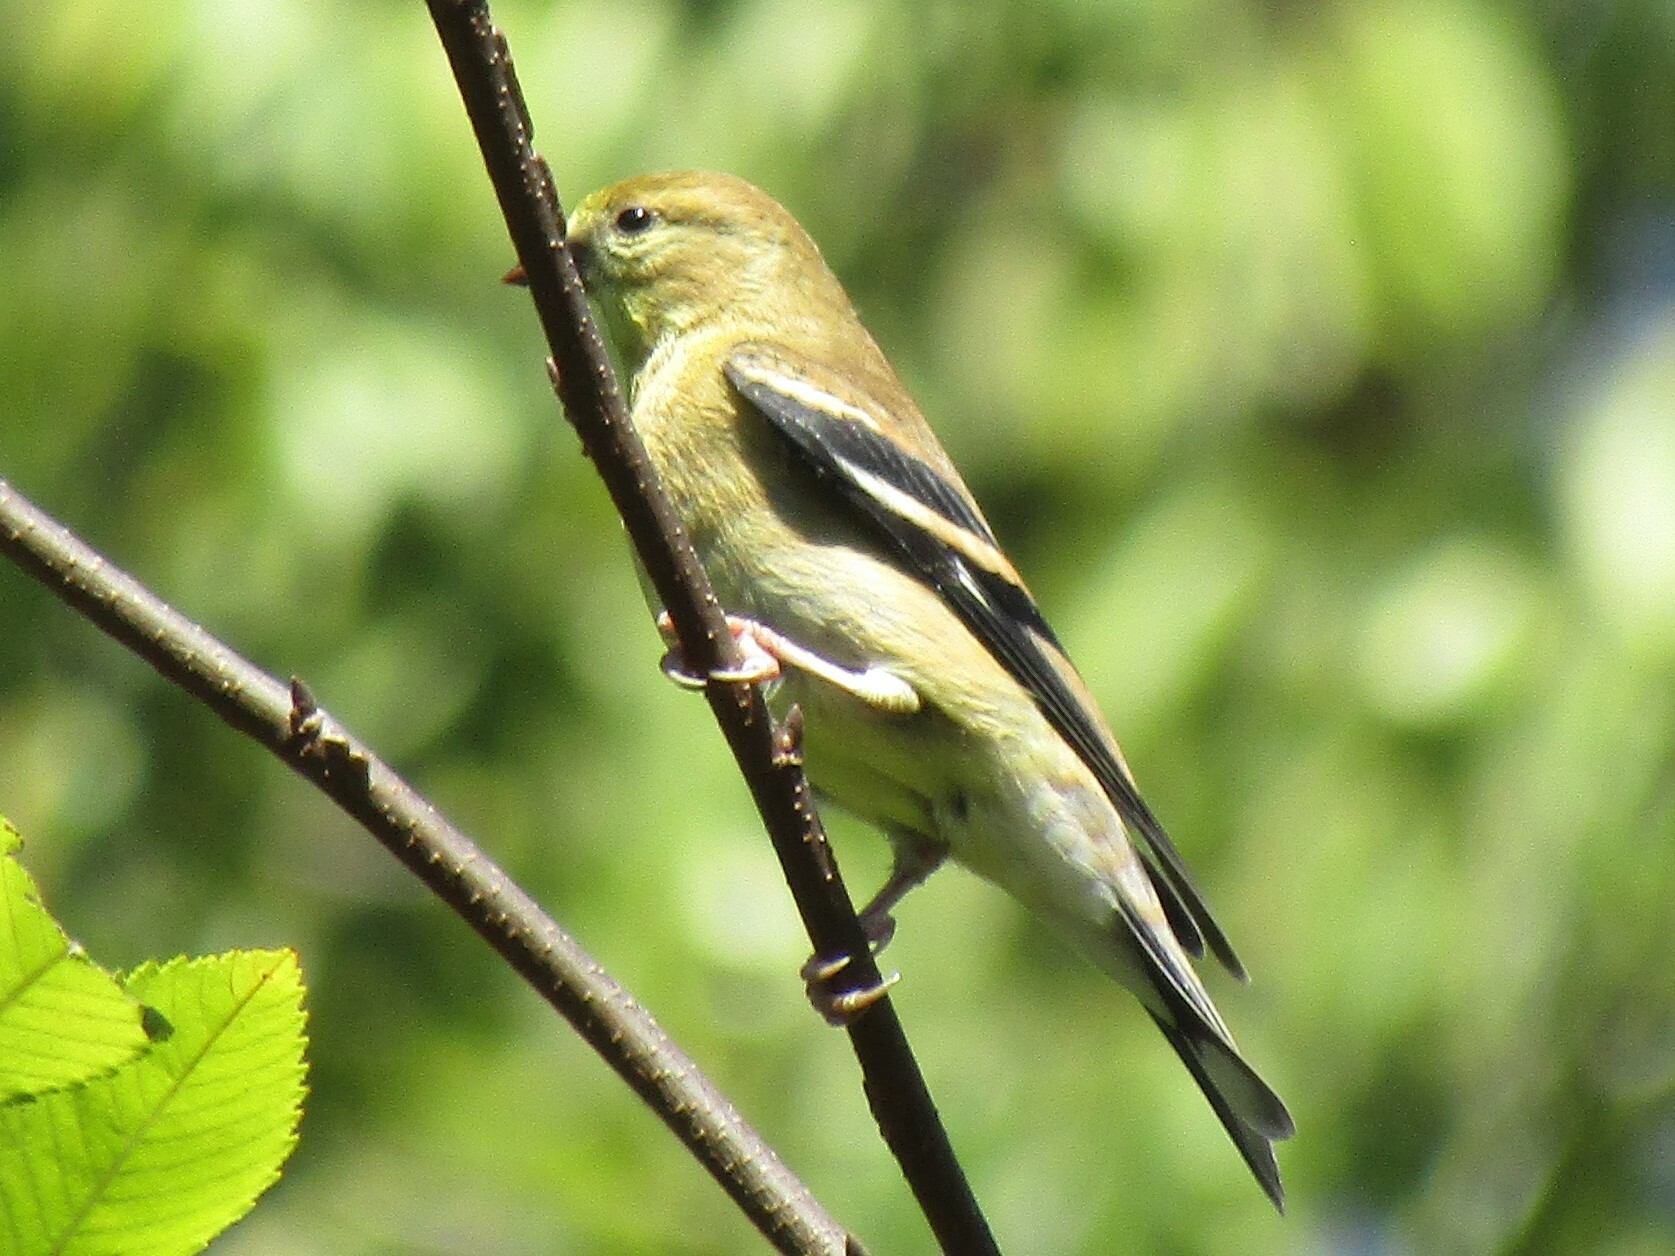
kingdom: Animalia
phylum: Chordata
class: Aves
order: Passeriformes
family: Fringillidae
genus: Spinus
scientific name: Spinus tristis
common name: American goldfinch
